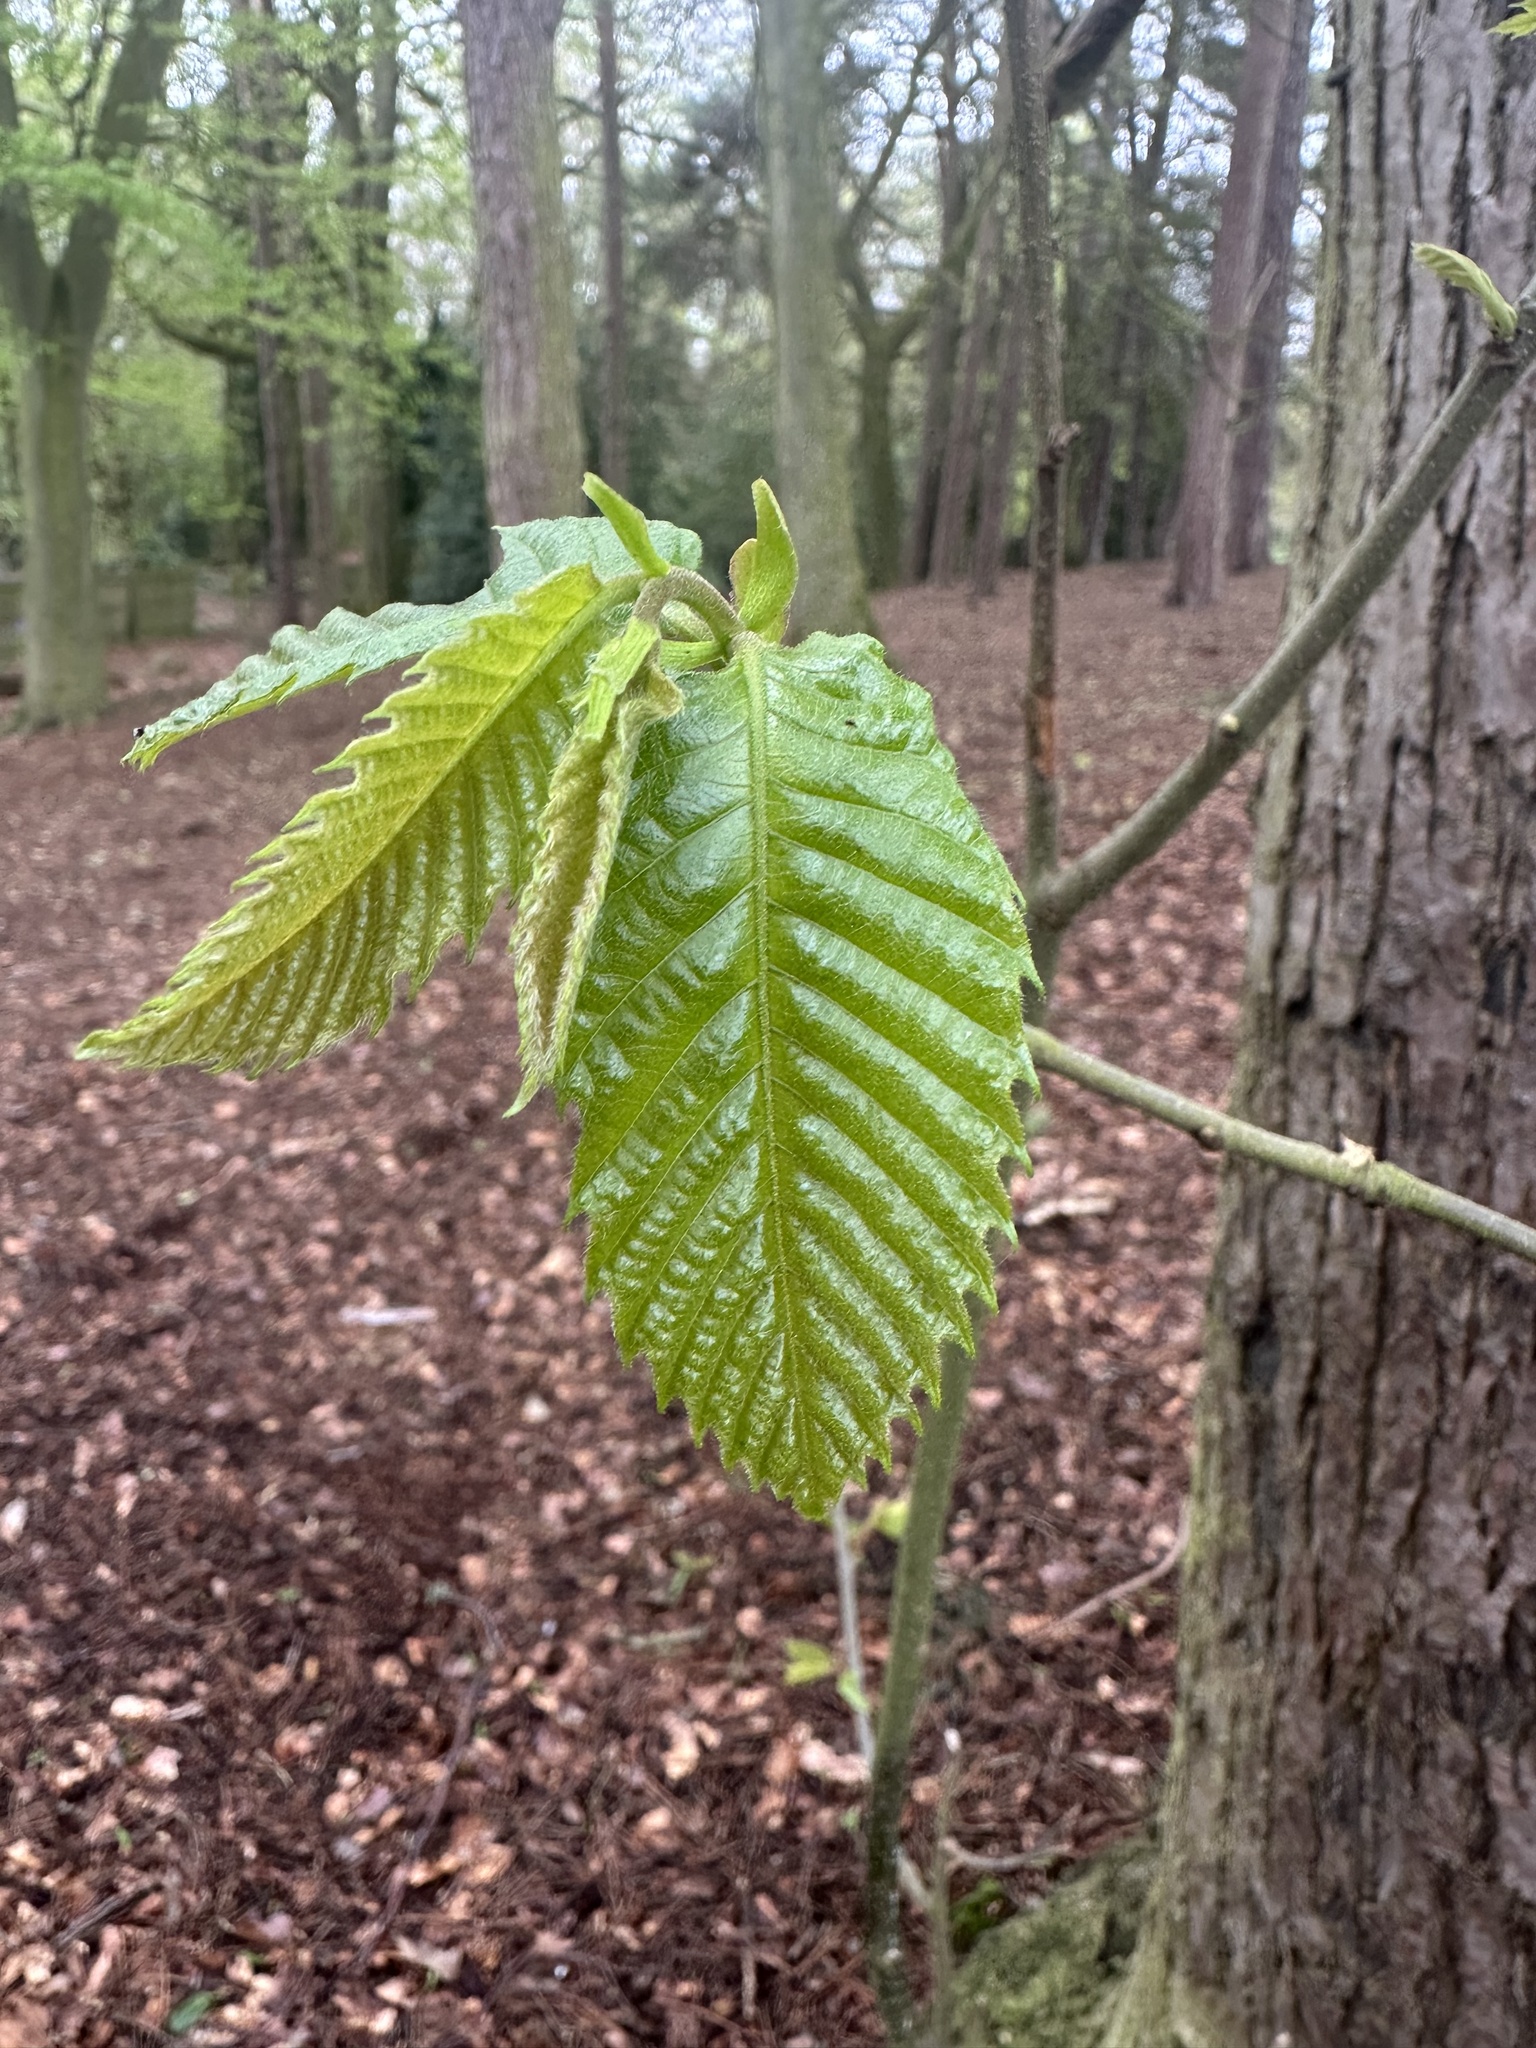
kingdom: Plantae
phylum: Tracheophyta
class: Magnoliopsida
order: Fagales
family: Betulaceae
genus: Carpinus
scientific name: Carpinus betulus
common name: Hornbeam
